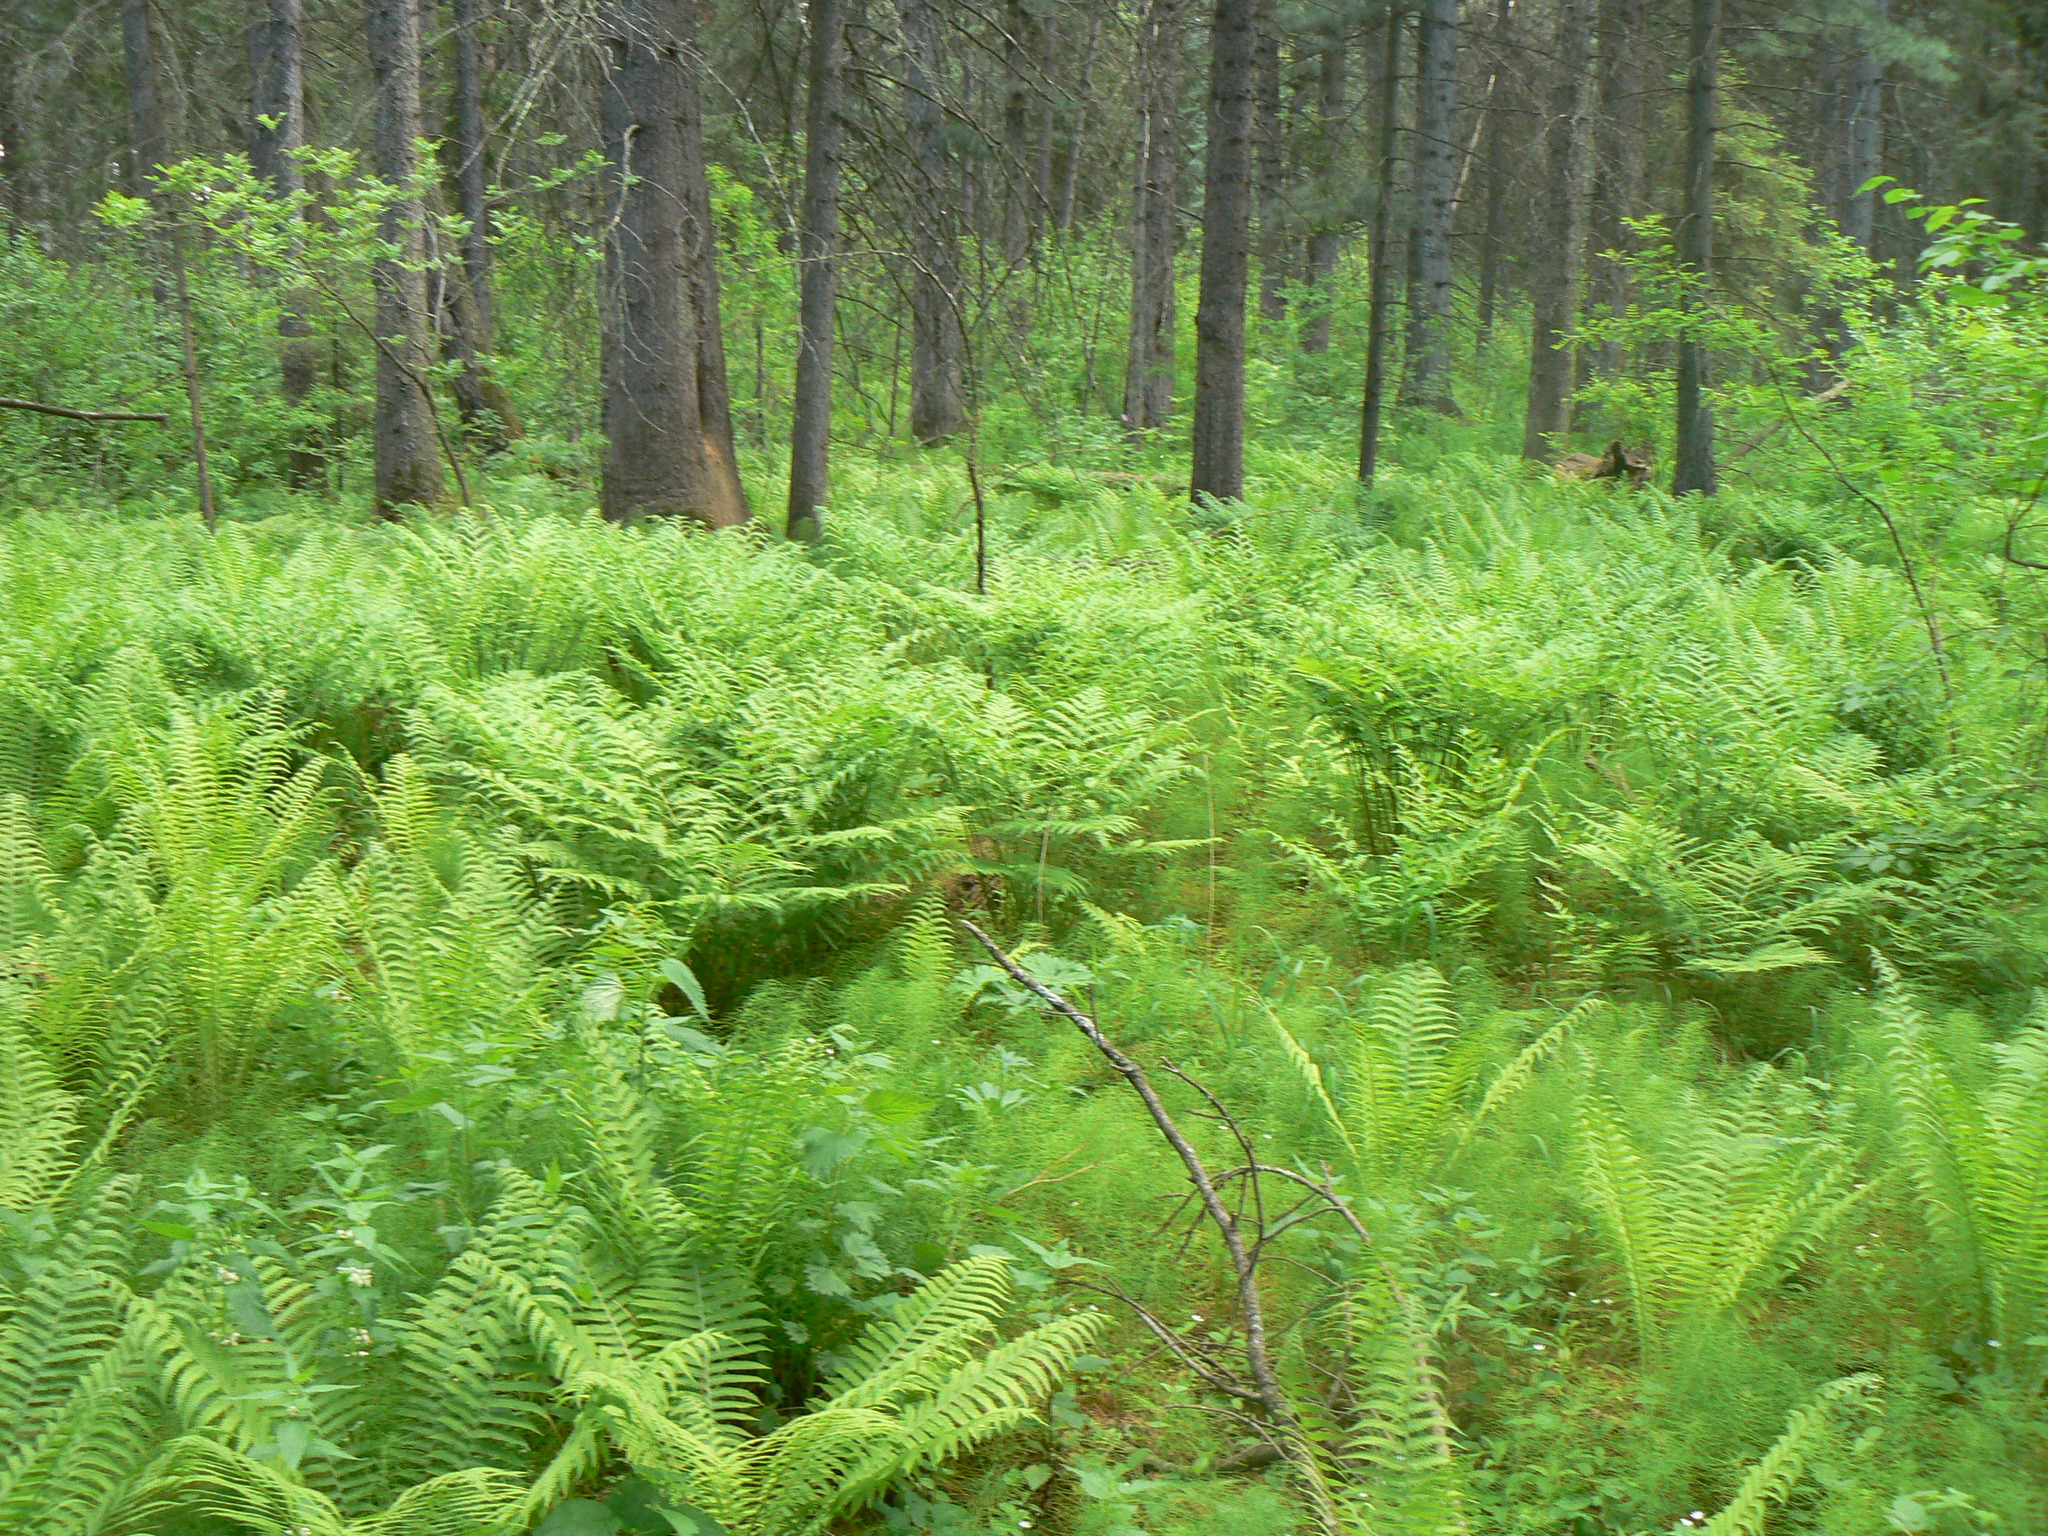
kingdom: Plantae
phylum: Tracheophyta
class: Polypodiopsida
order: Polypodiales
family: Onocleaceae
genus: Matteuccia
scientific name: Matteuccia struthiopteris
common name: Ostrich fern
